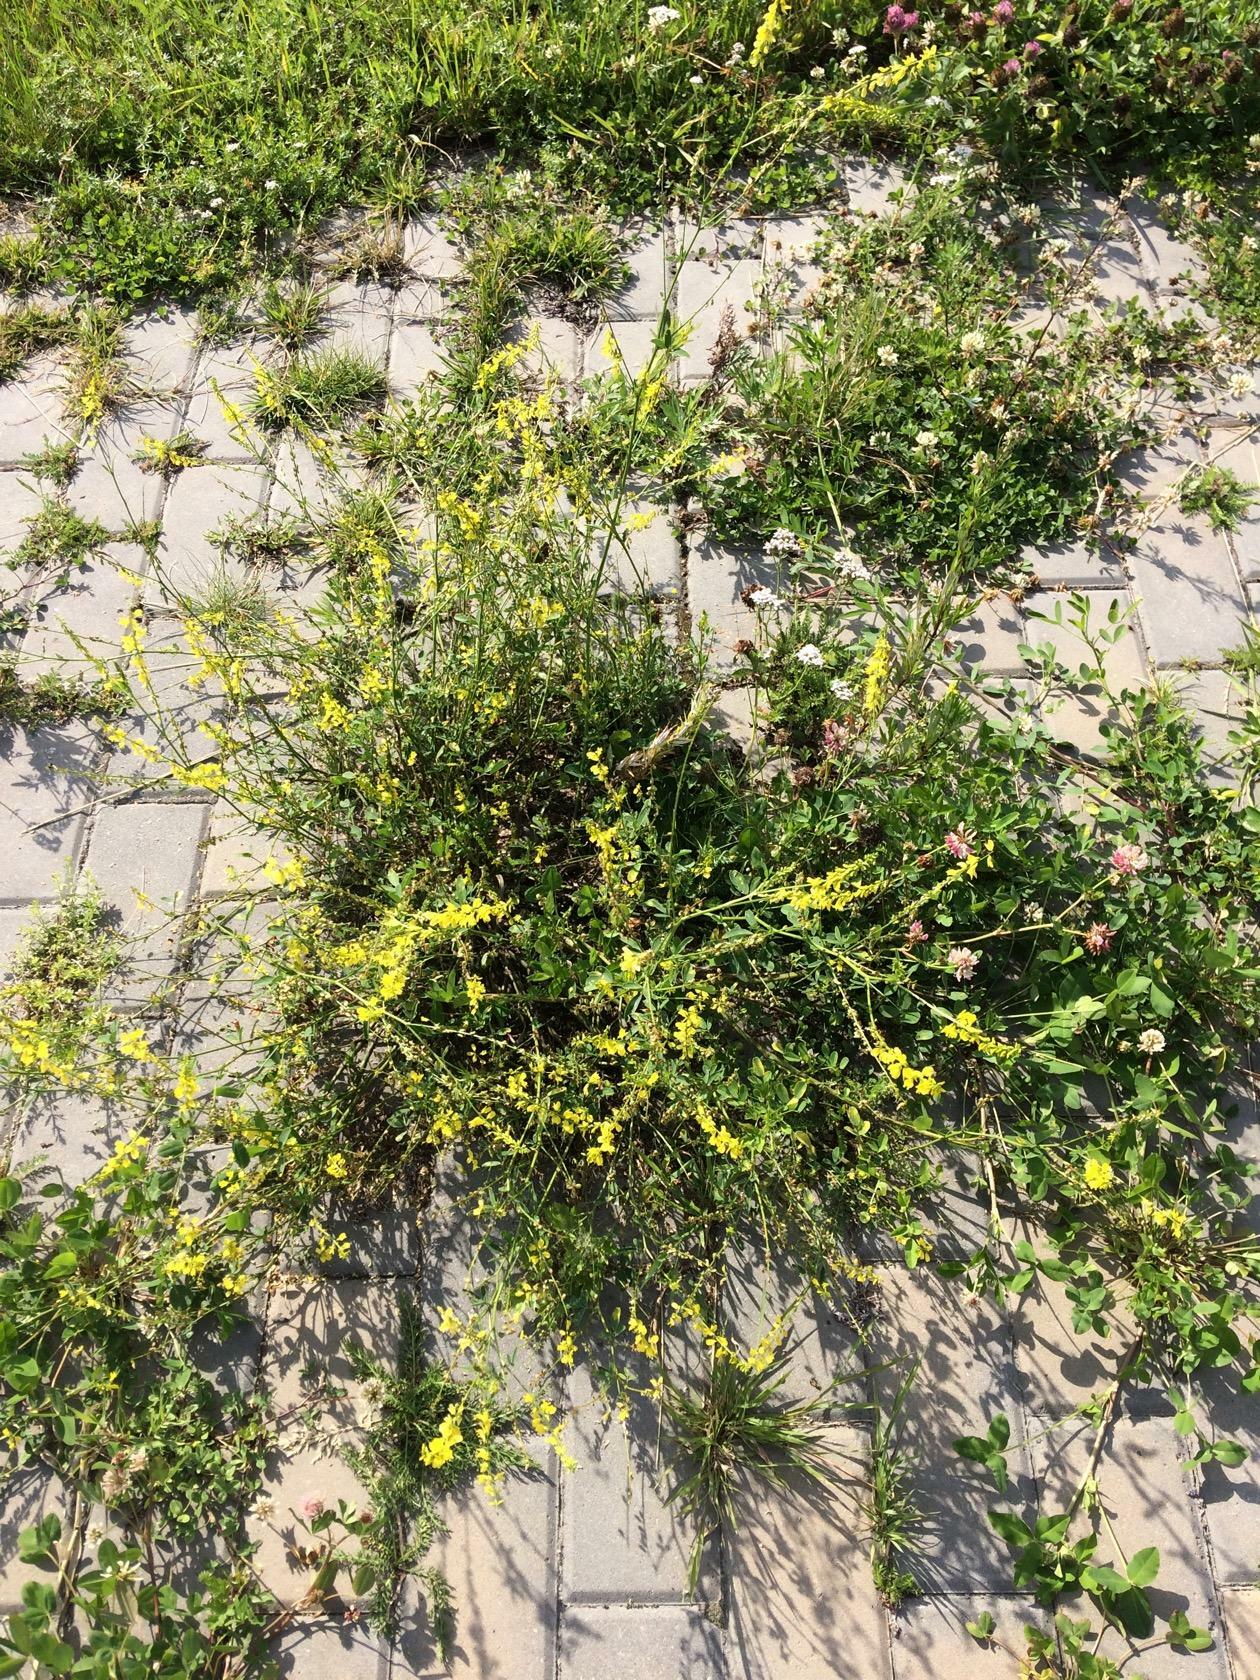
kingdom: Plantae
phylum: Tracheophyta
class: Magnoliopsida
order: Fabales
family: Fabaceae
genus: Melilotus
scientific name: Melilotus officinalis
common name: Sweetclover
